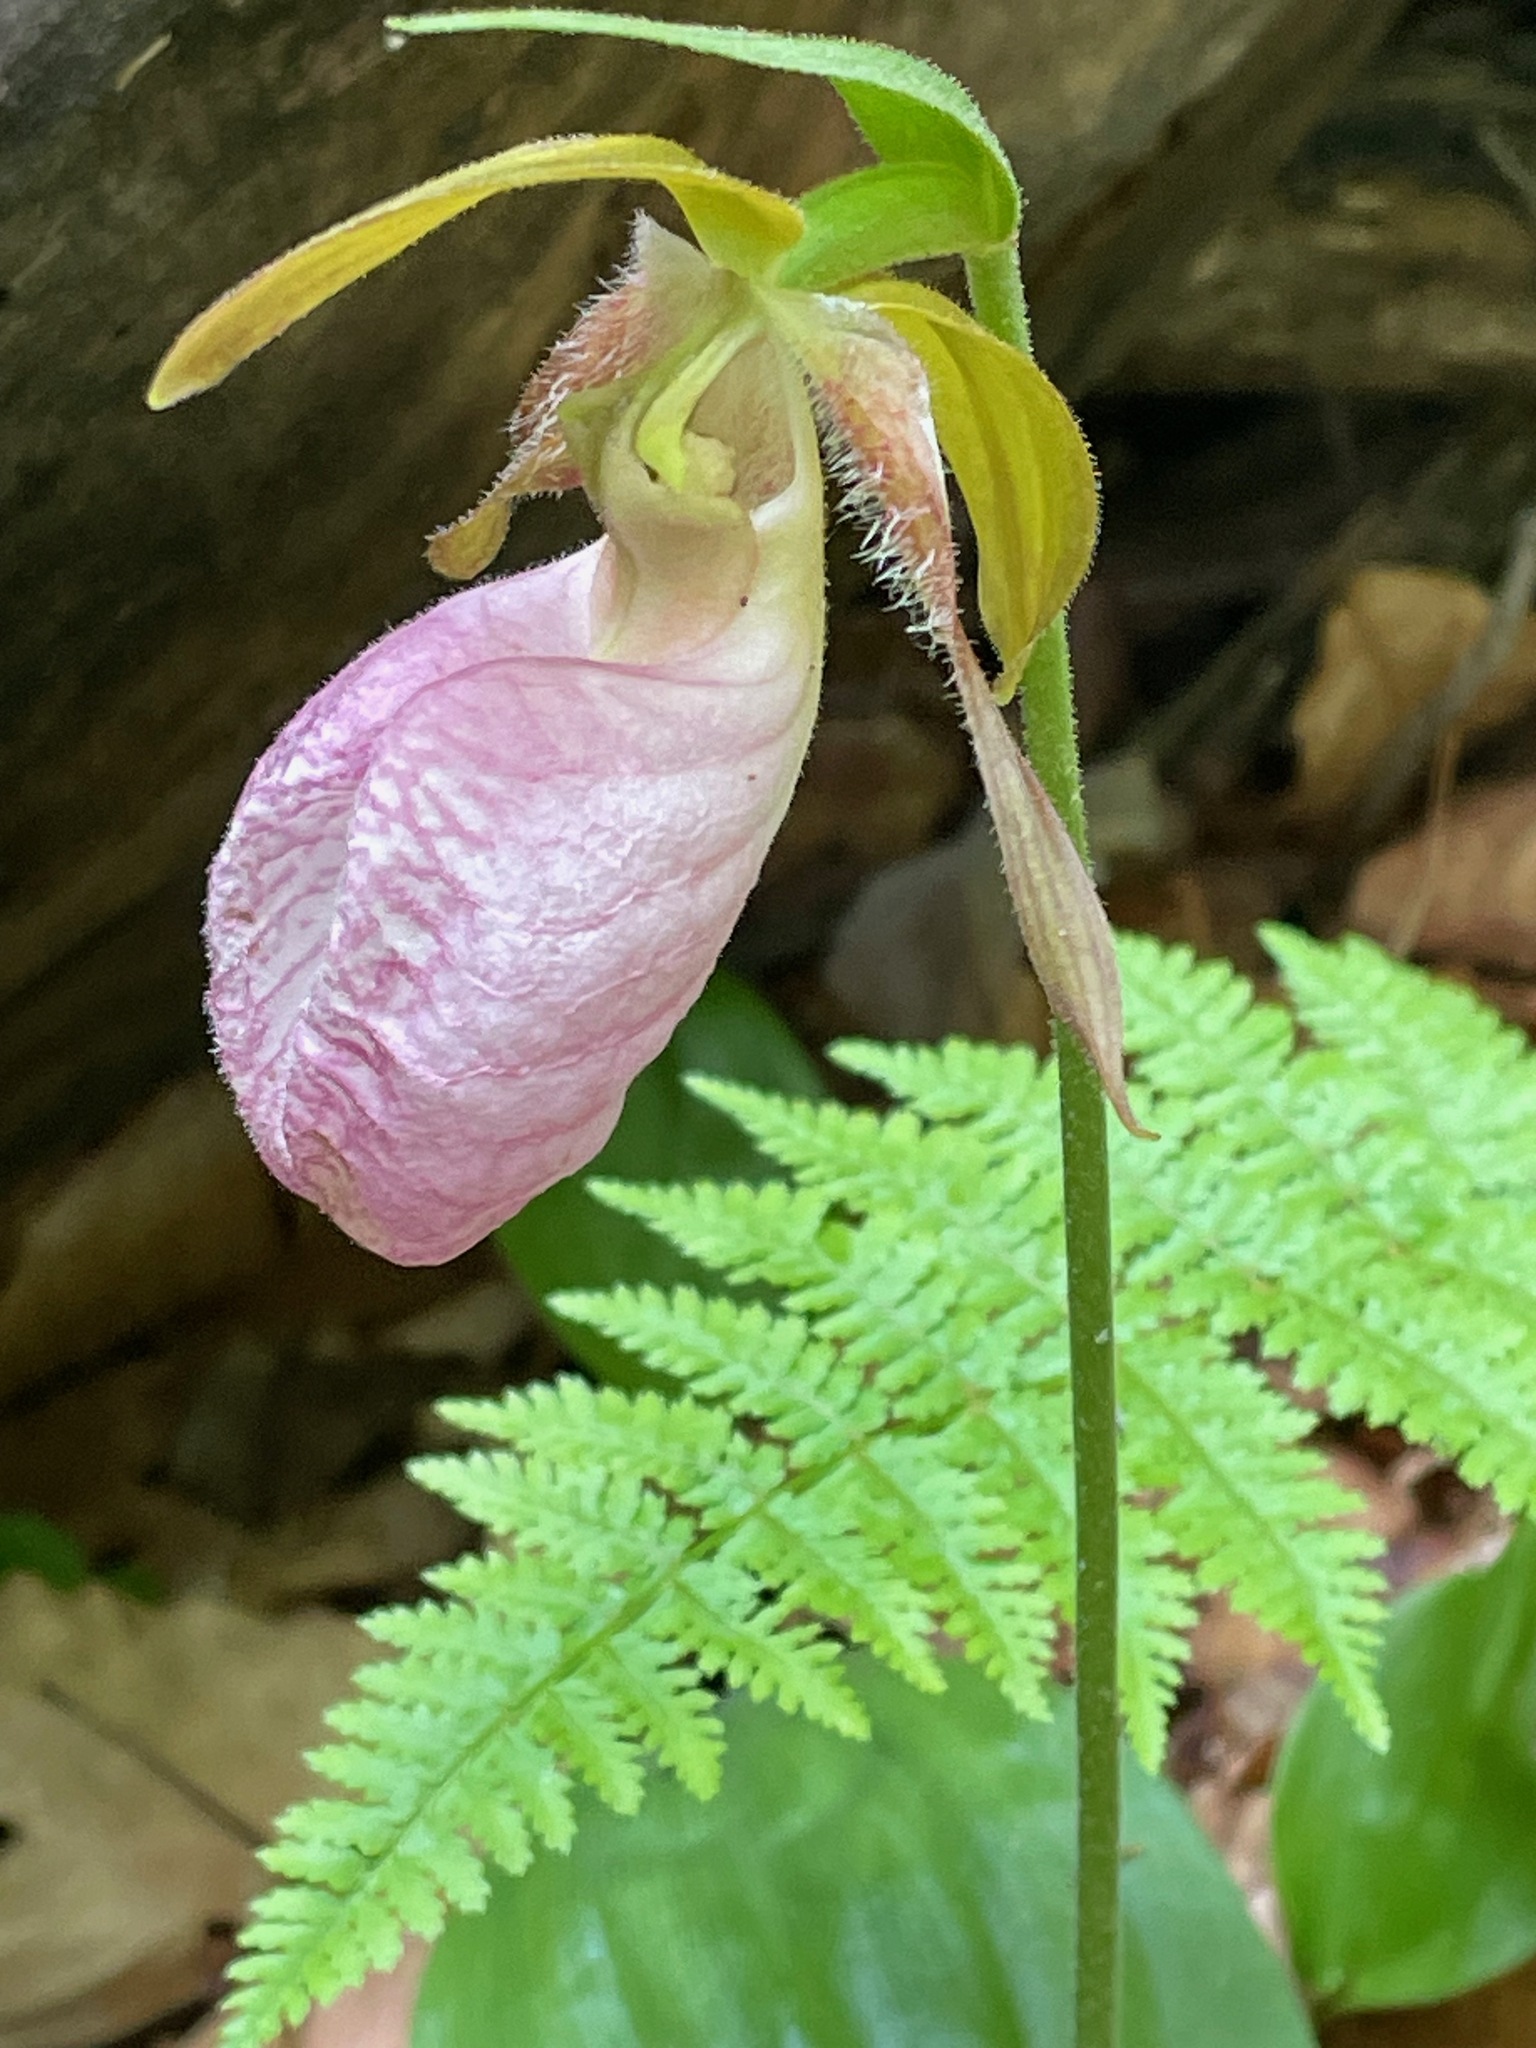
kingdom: Plantae
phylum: Tracheophyta
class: Liliopsida
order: Asparagales
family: Orchidaceae
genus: Cypripedium
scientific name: Cypripedium acaule
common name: Pink lady's-slipper
